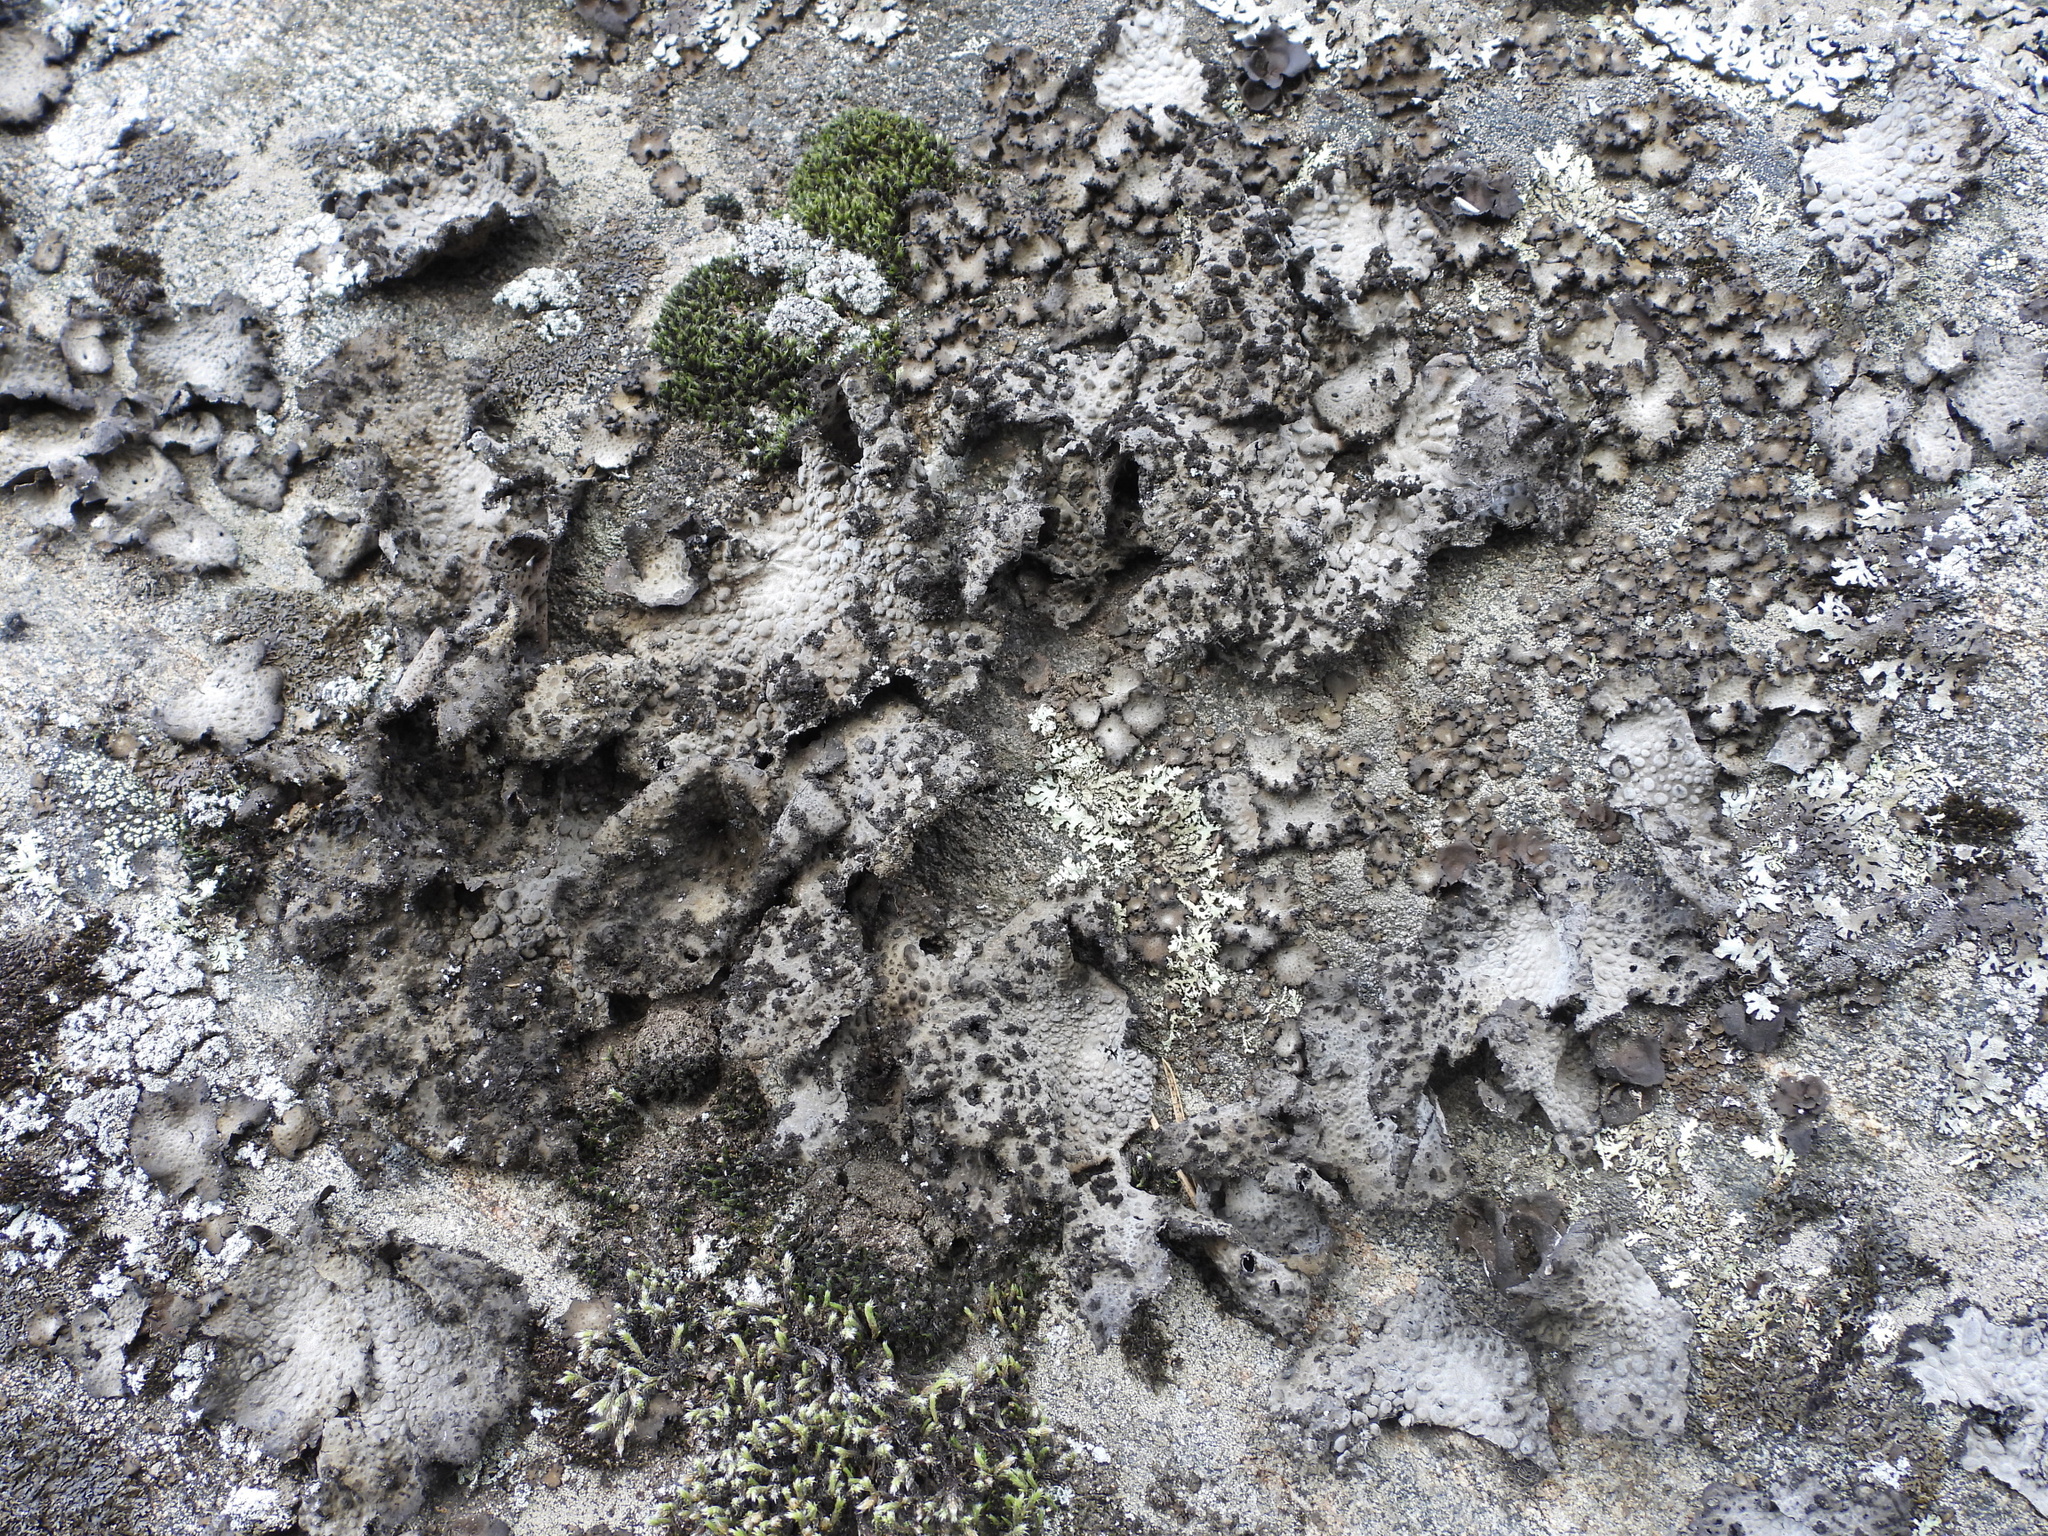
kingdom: Fungi
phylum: Ascomycota
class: Lecanoromycetes
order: Umbilicariales
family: Umbilicariaceae
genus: Lasallia
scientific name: Lasallia pustulata
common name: Blistered toadskin lichen
